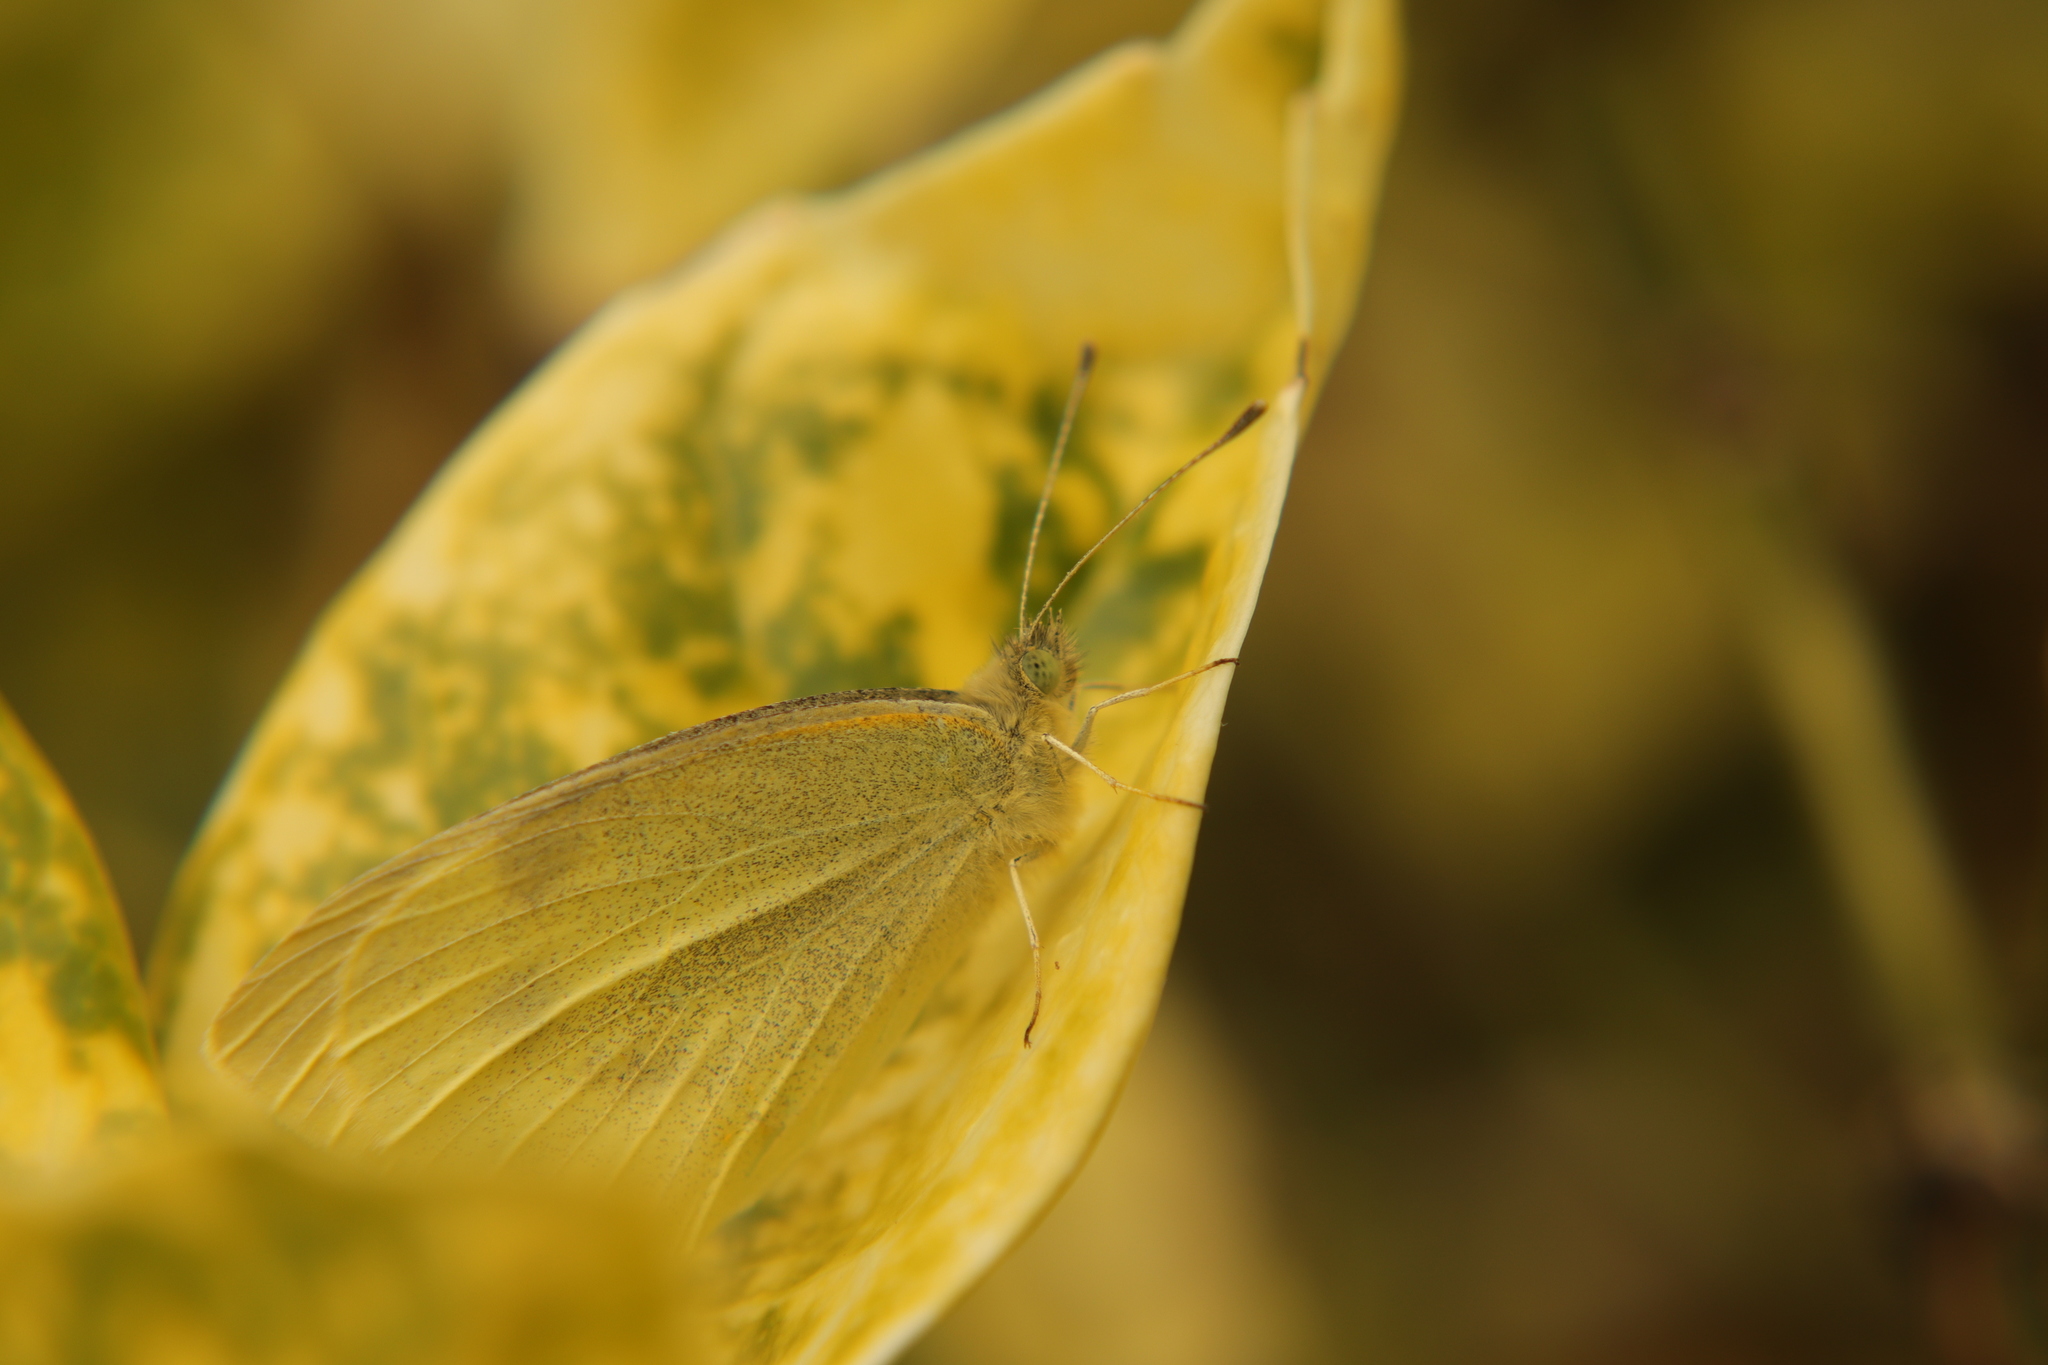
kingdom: Animalia
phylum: Arthropoda
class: Insecta
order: Lepidoptera
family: Pieridae
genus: Pieris
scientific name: Pieris rapae
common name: Small white
